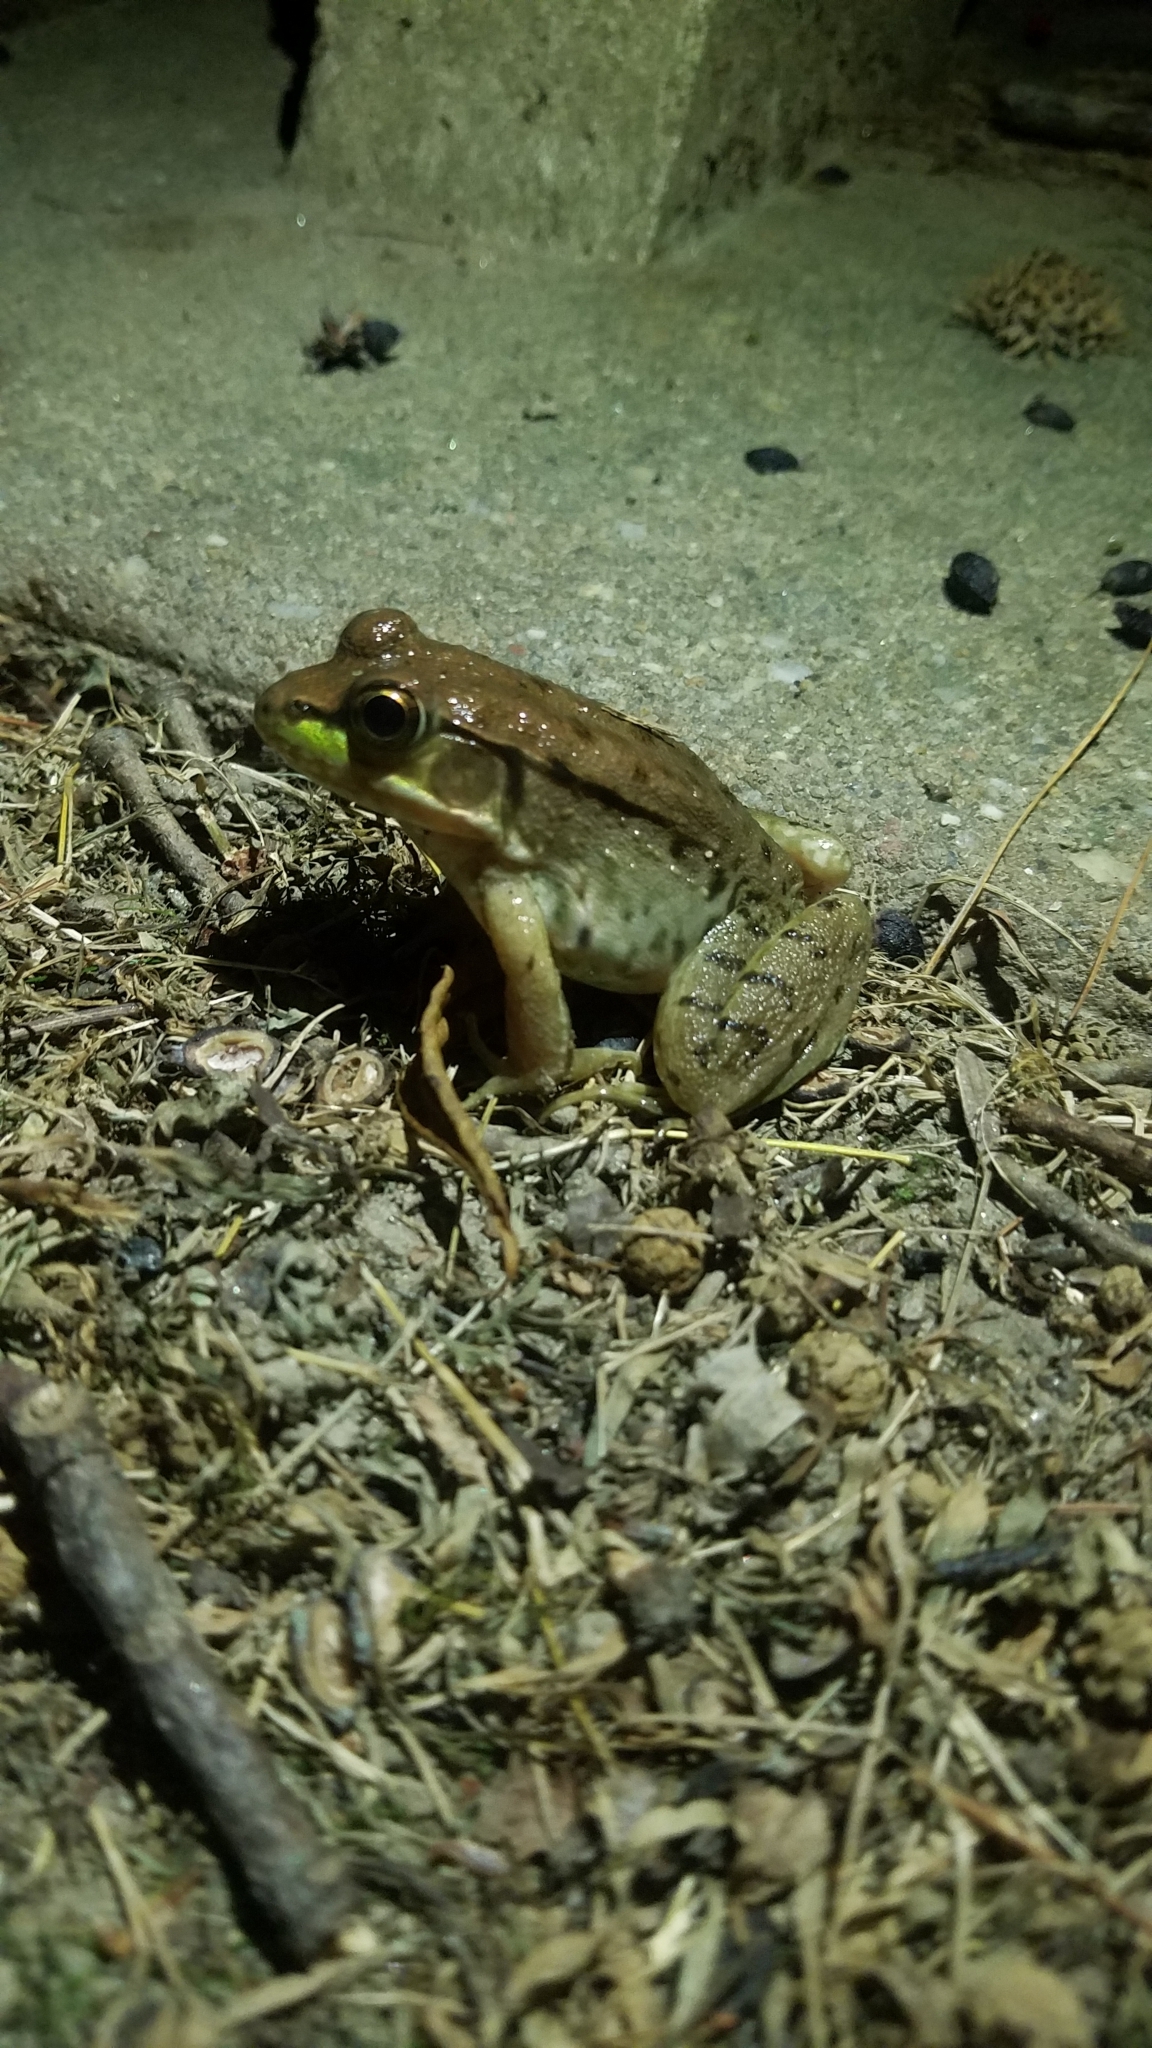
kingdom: Animalia
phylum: Chordata
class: Amphibia
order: Anura
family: Ranidae
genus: Lithobates
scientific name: Lithobates clamitans
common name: Green frog
